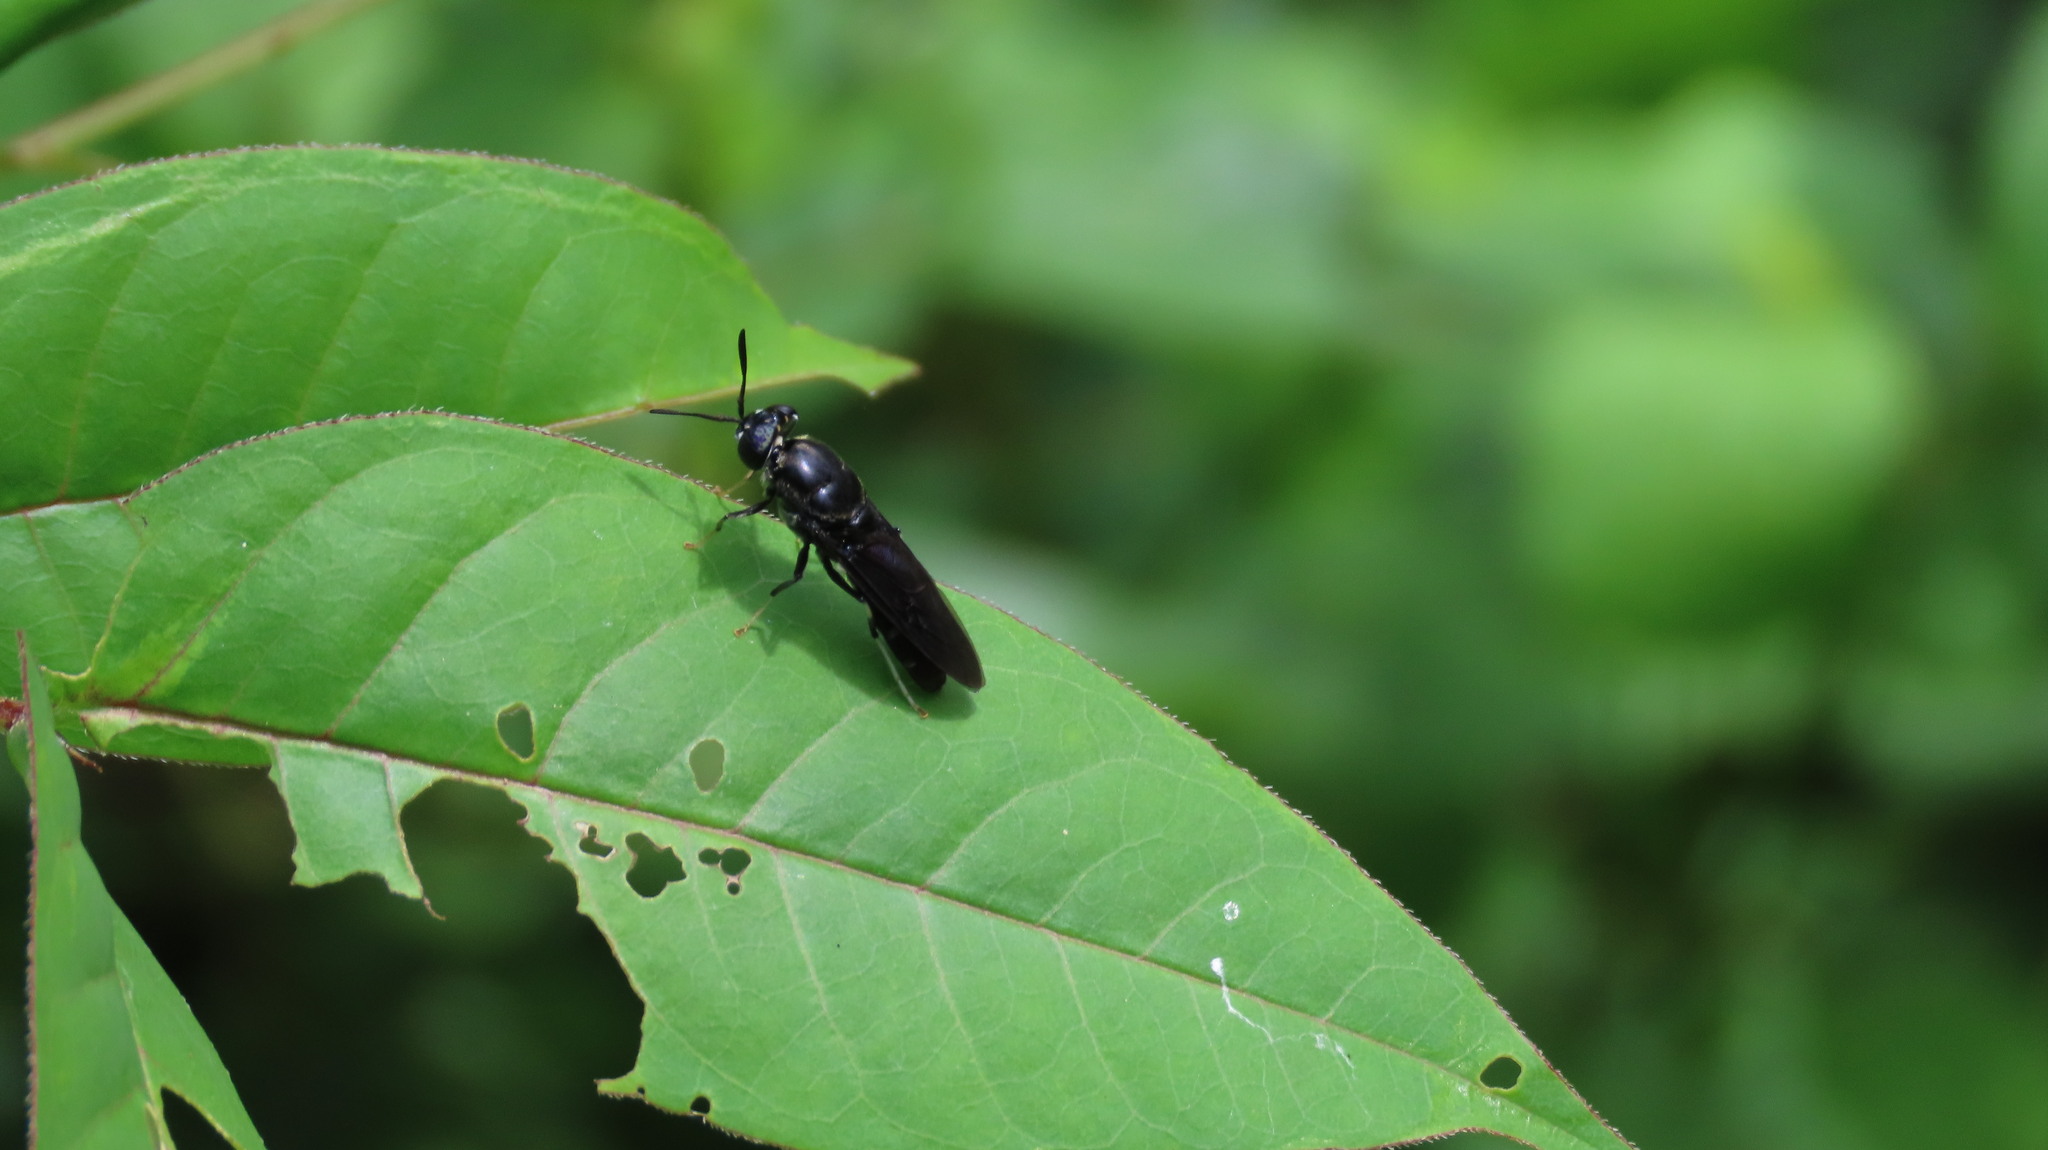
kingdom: Animalia
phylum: Arthropoda
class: Insecta
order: Diptera
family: Stratiomyidae
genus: Hermetia
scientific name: Hermetia illucens
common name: Black soldier fly
